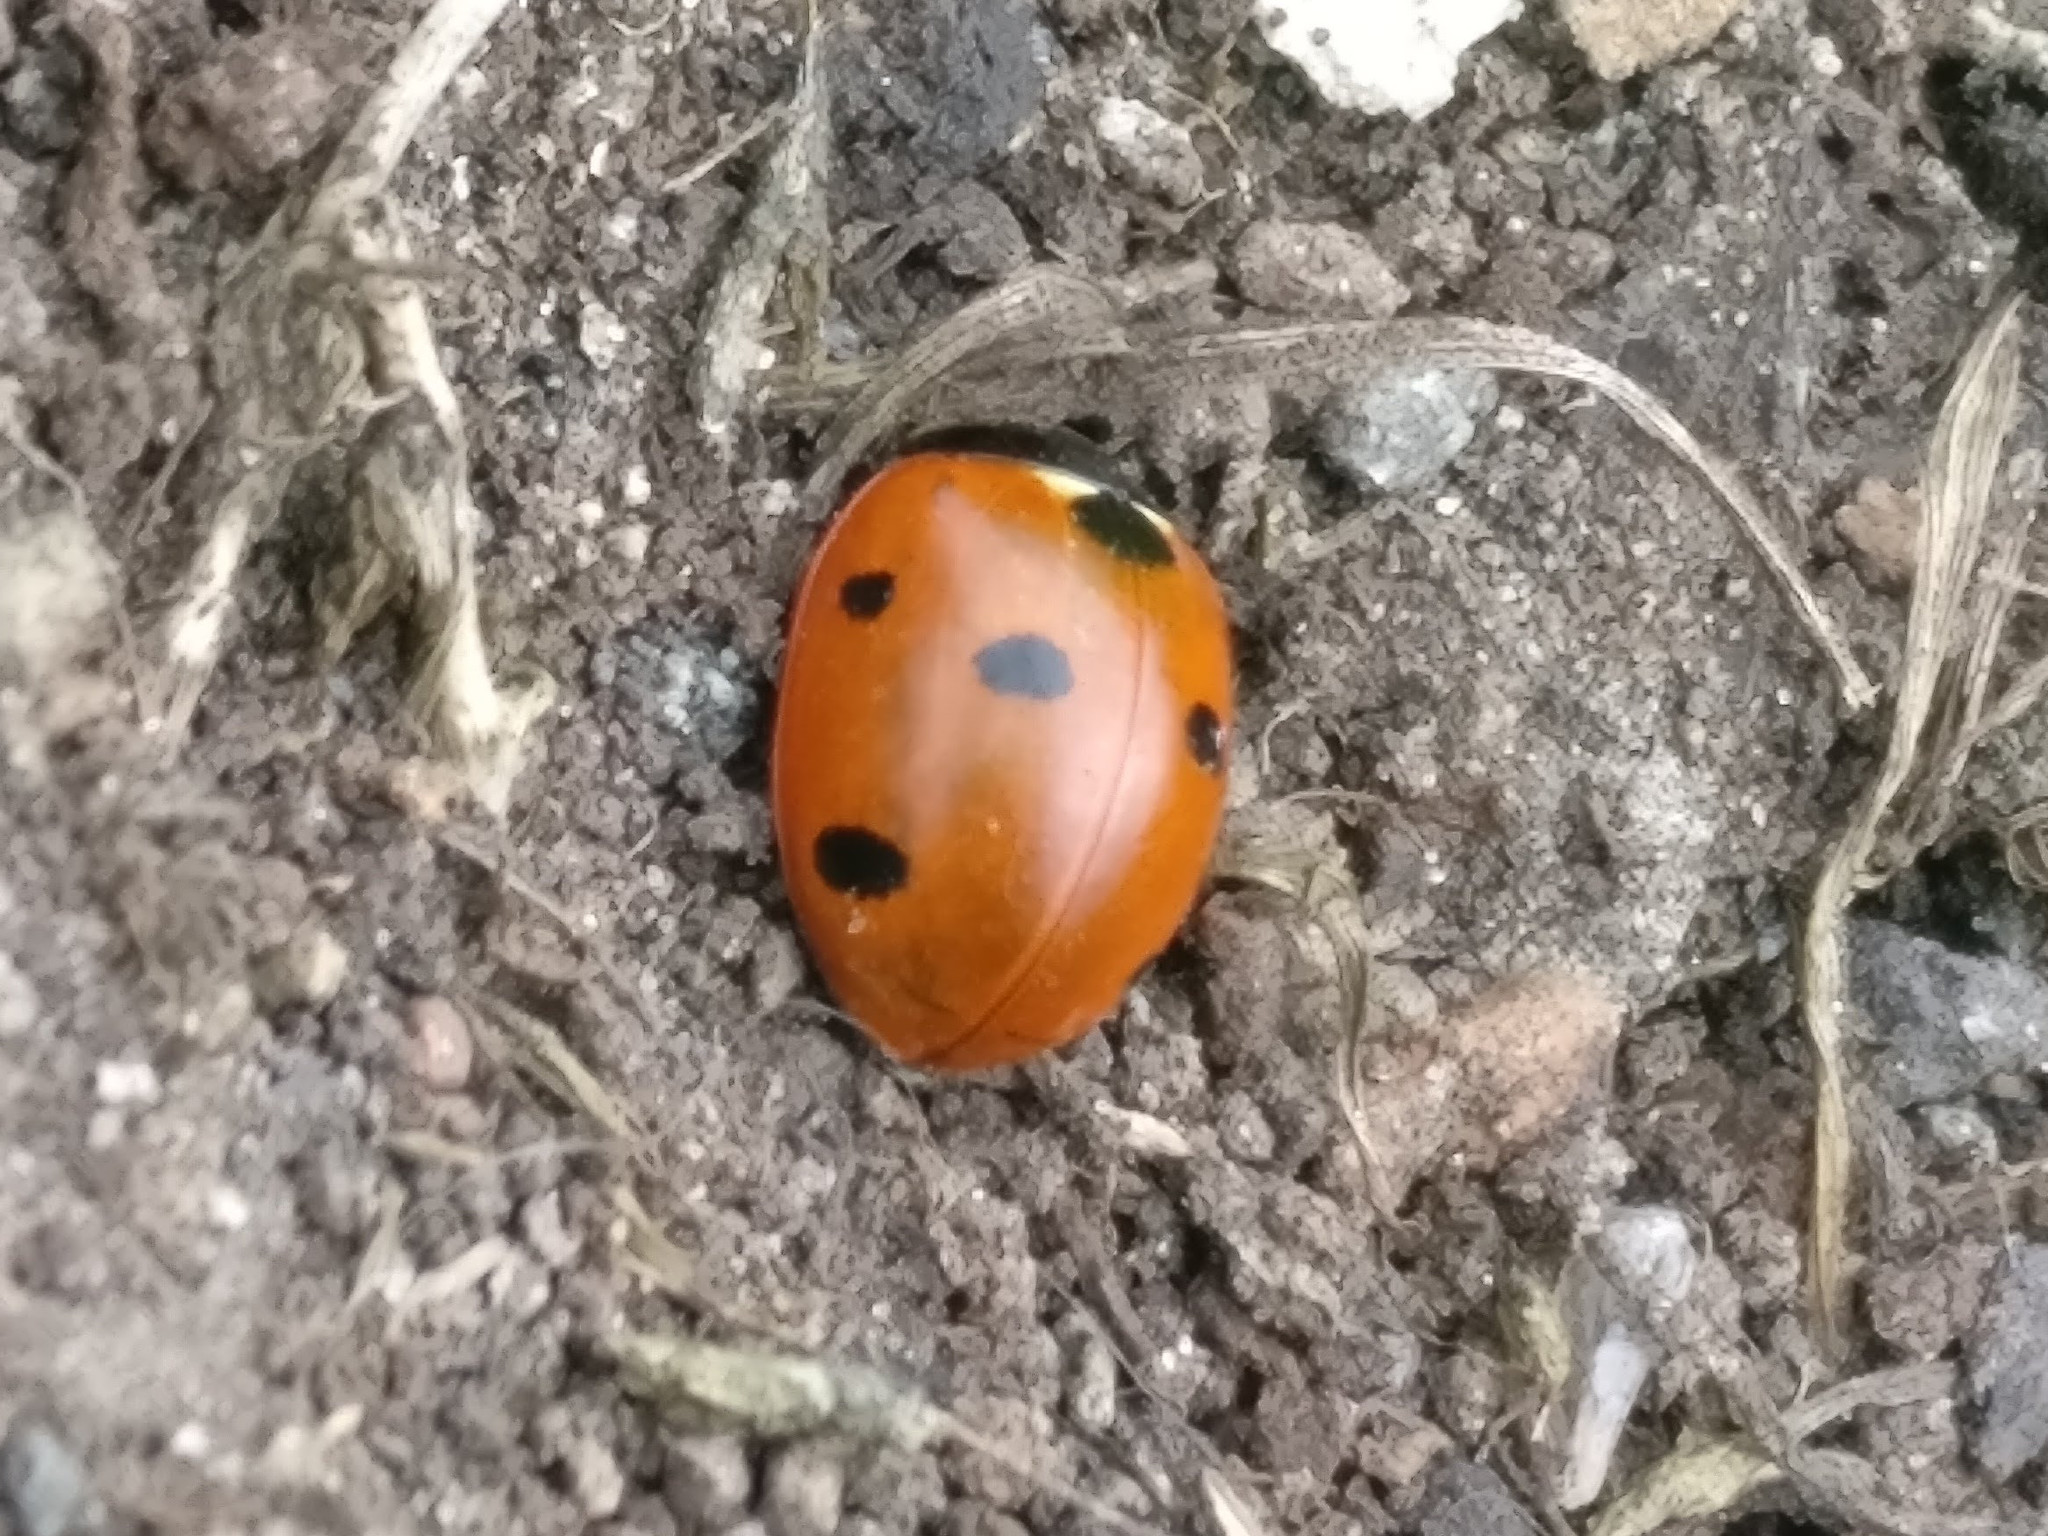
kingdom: Animalia
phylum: Arthropoda
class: Insecta
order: Coleoptera
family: Coccinellidae
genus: Coccinella
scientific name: Coccinella septempunctata
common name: Sevenspotted lady beetle
